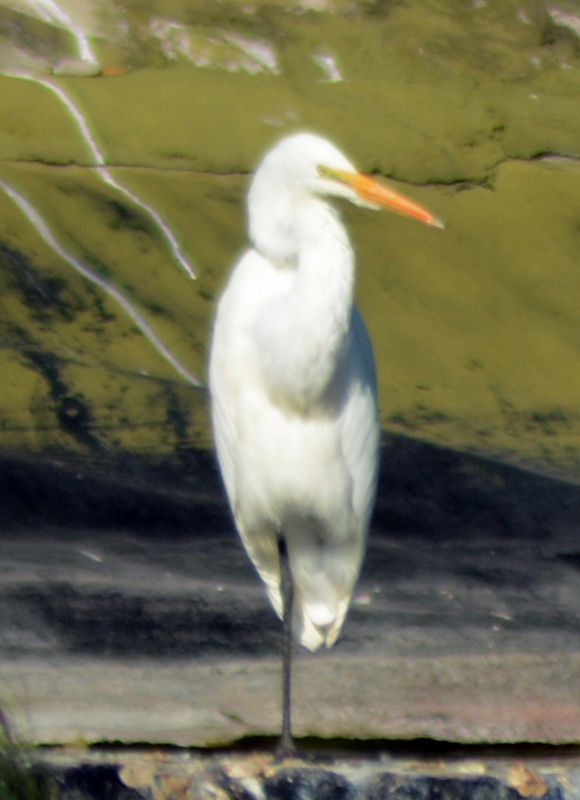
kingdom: Animalia
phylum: Chordata
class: Aves
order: Pelecaniformes
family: Ardeidae
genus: Bubulcus
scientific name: Bubulcus ibis
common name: Cattle egret
